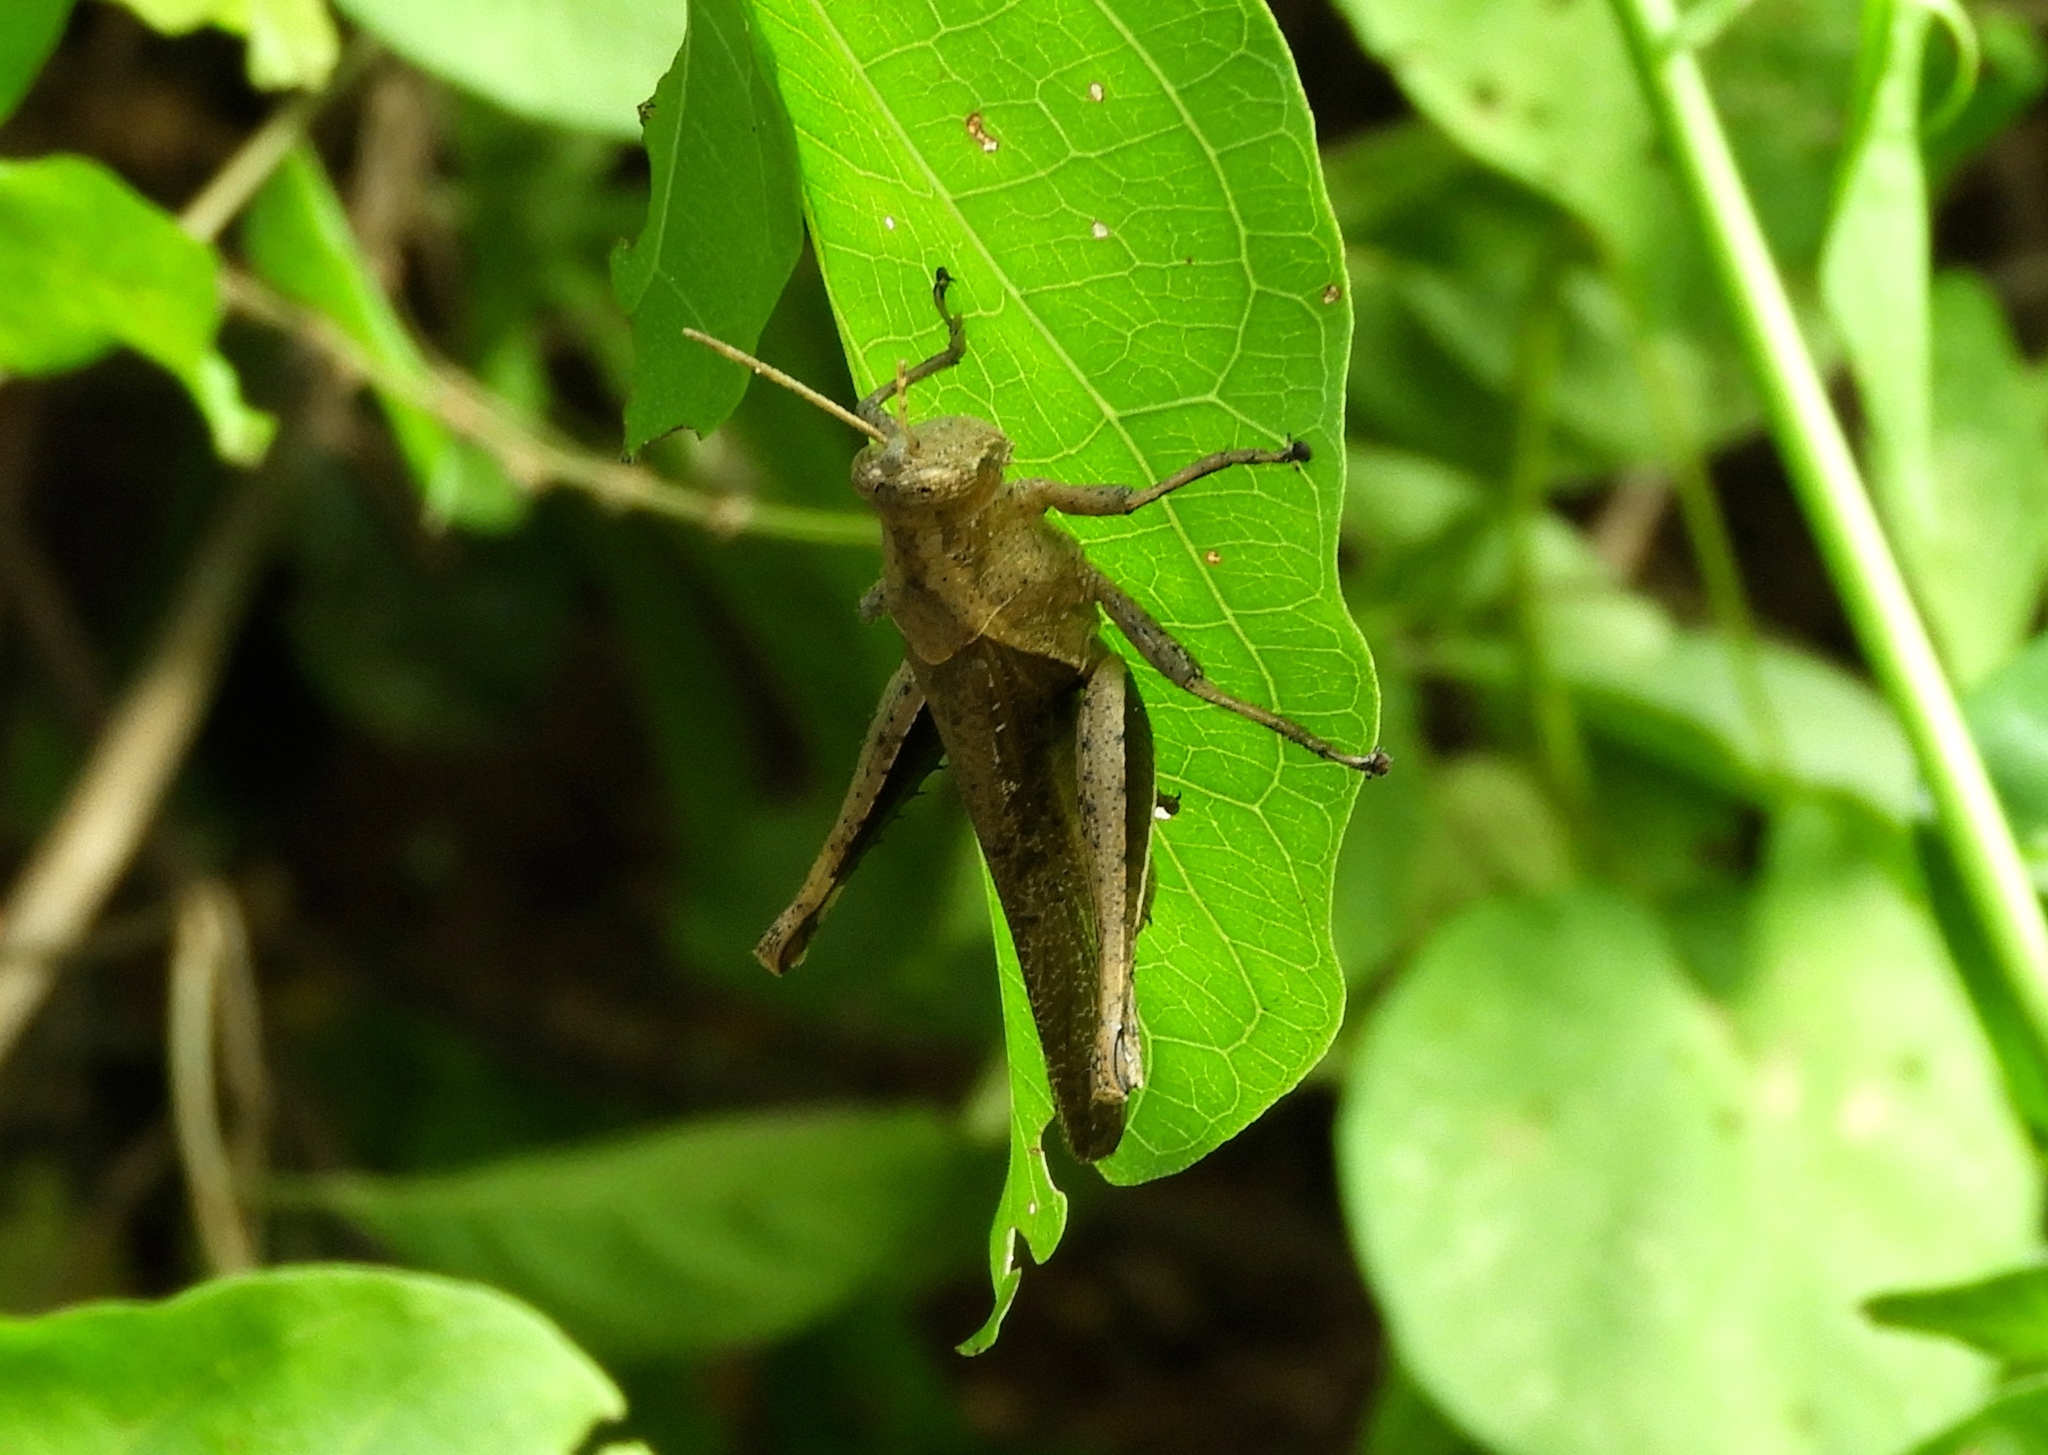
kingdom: Animalia
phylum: Arthropoda
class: Insecta
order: Orthoptera
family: Acrididae
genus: Abracris
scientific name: Abracris
